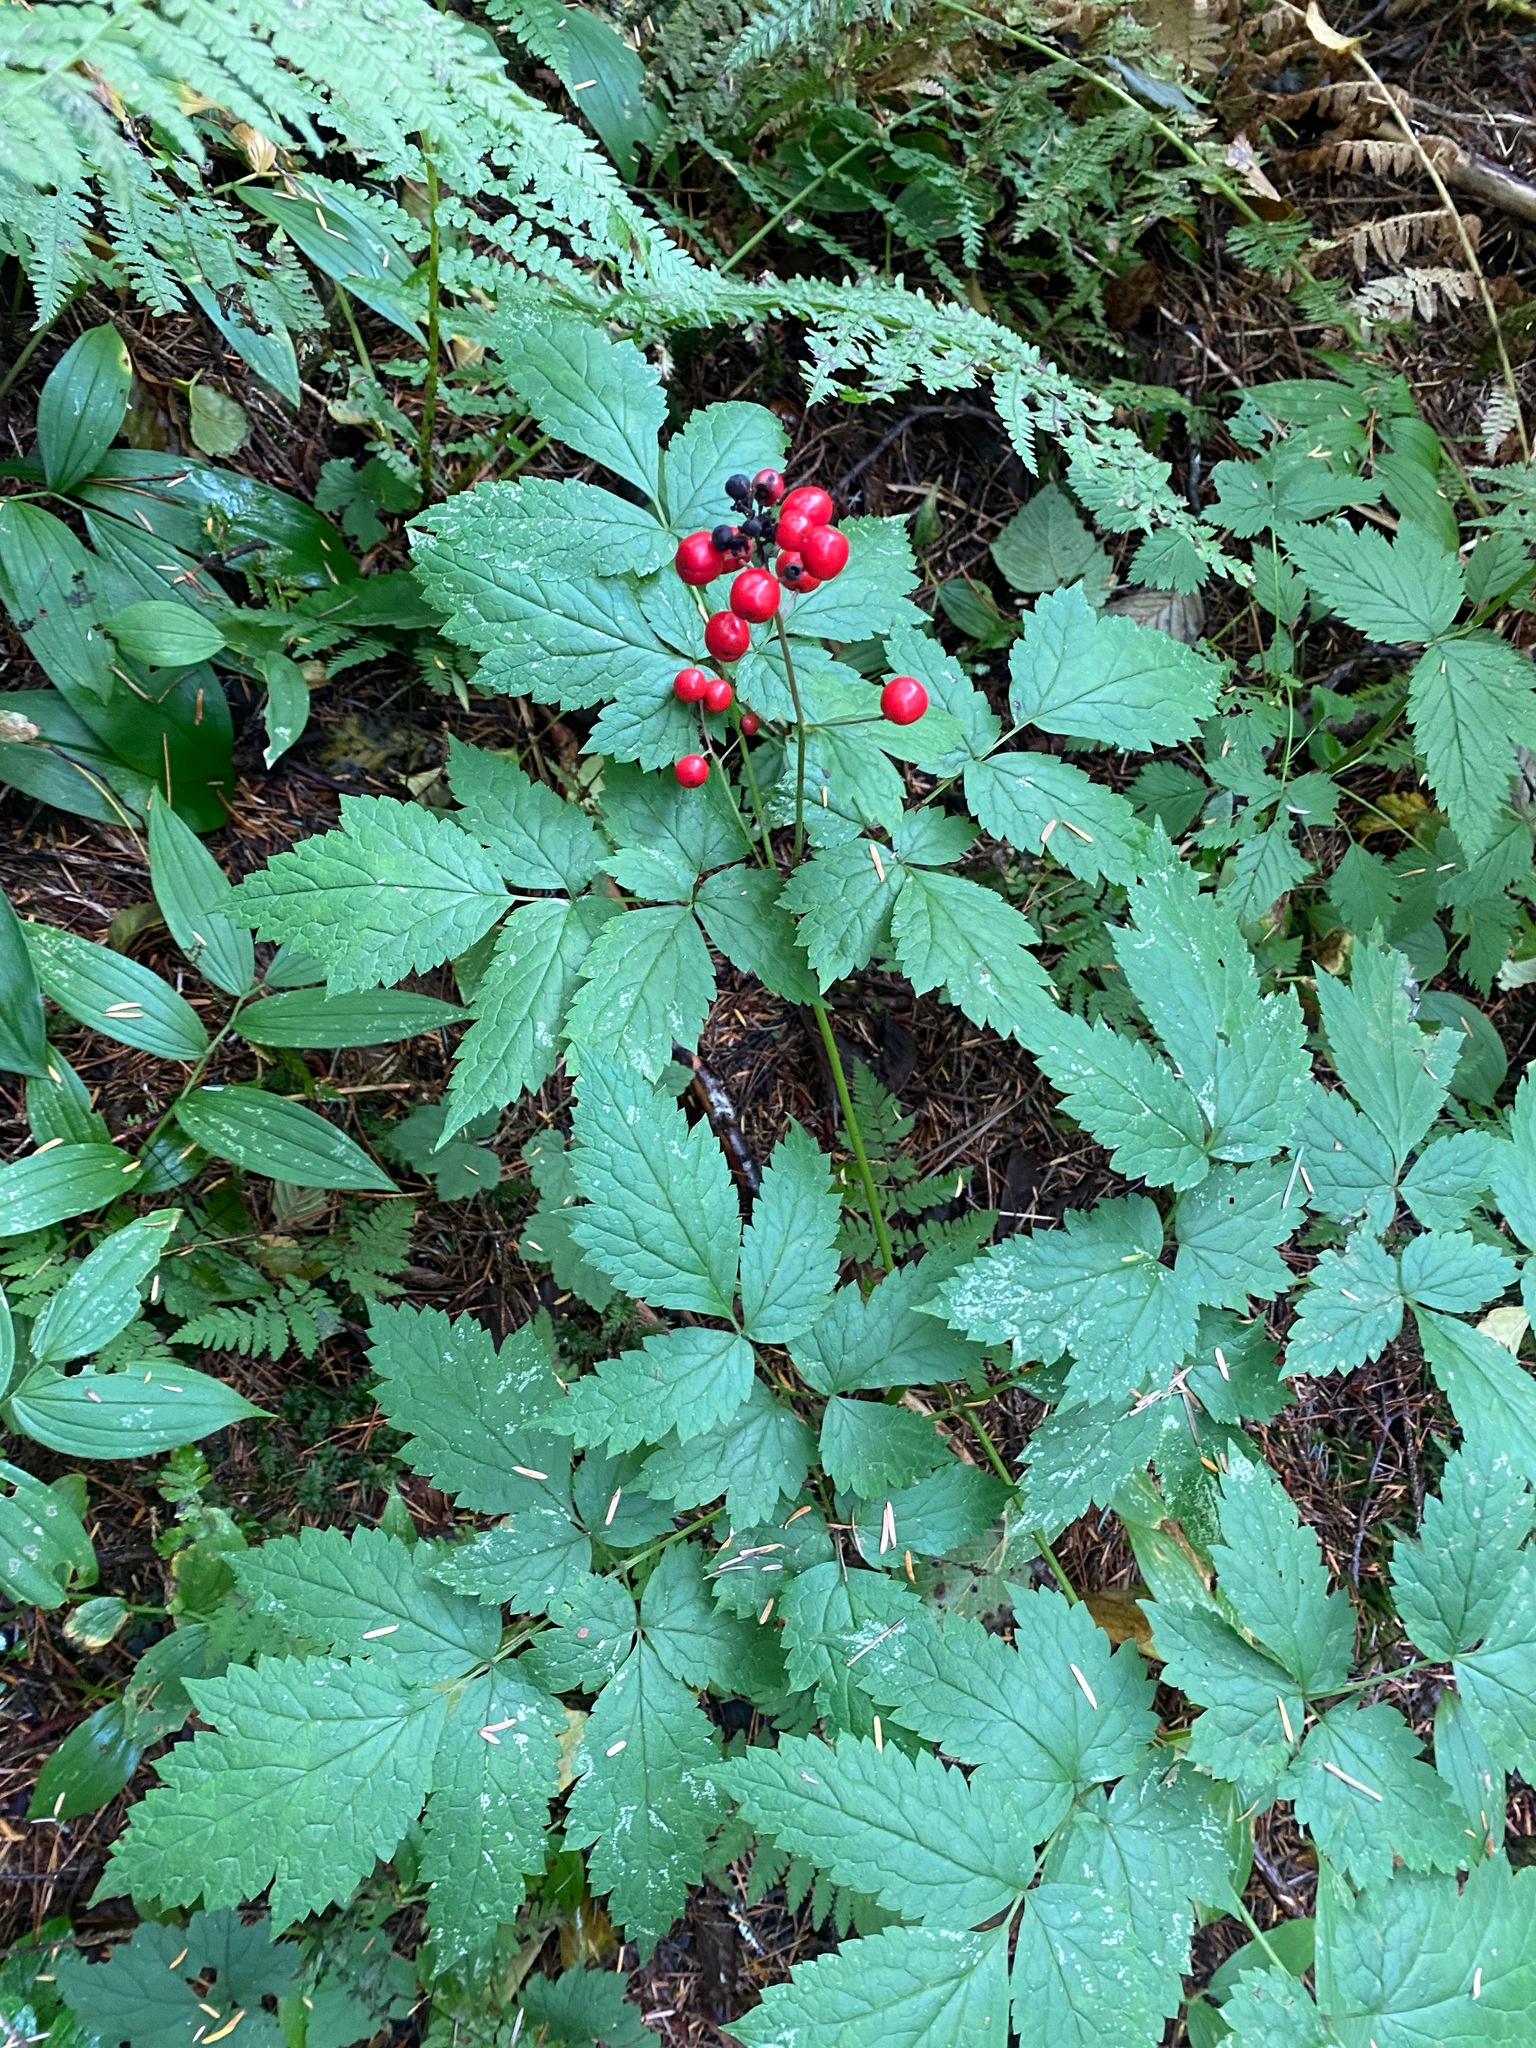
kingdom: Plantae
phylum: Tracheophyta
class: Magnoliopsida
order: Ranunculales
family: Ranunculaceae
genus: Actaea
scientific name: Actaea rubra
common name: Red baneberry
